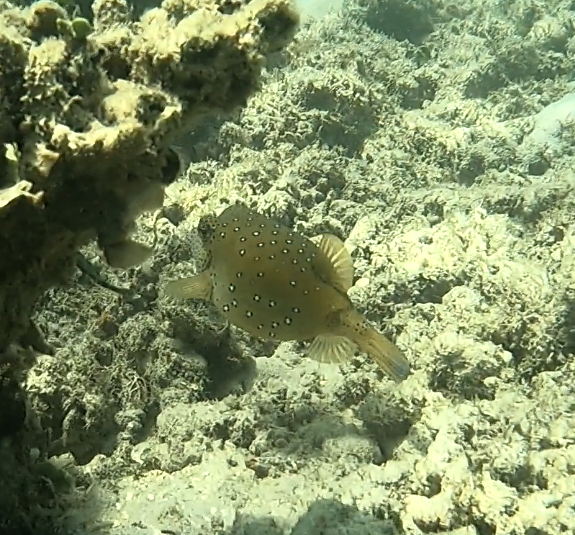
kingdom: Animalia
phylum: Chordata
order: Tetraodontiformes
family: Ostraciidae
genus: Ostracion
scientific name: Ostracion cubicus
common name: Cube trunkfish
